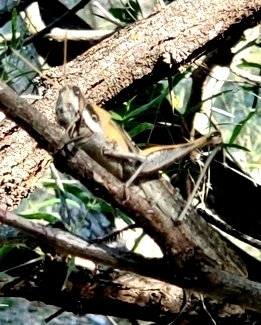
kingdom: Animalia
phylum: Arthropoda
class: Insecta
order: Orthoptera
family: Acrididae
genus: Schistocerca
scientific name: Schistocerca nitens
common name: Vagrant grasshopper
